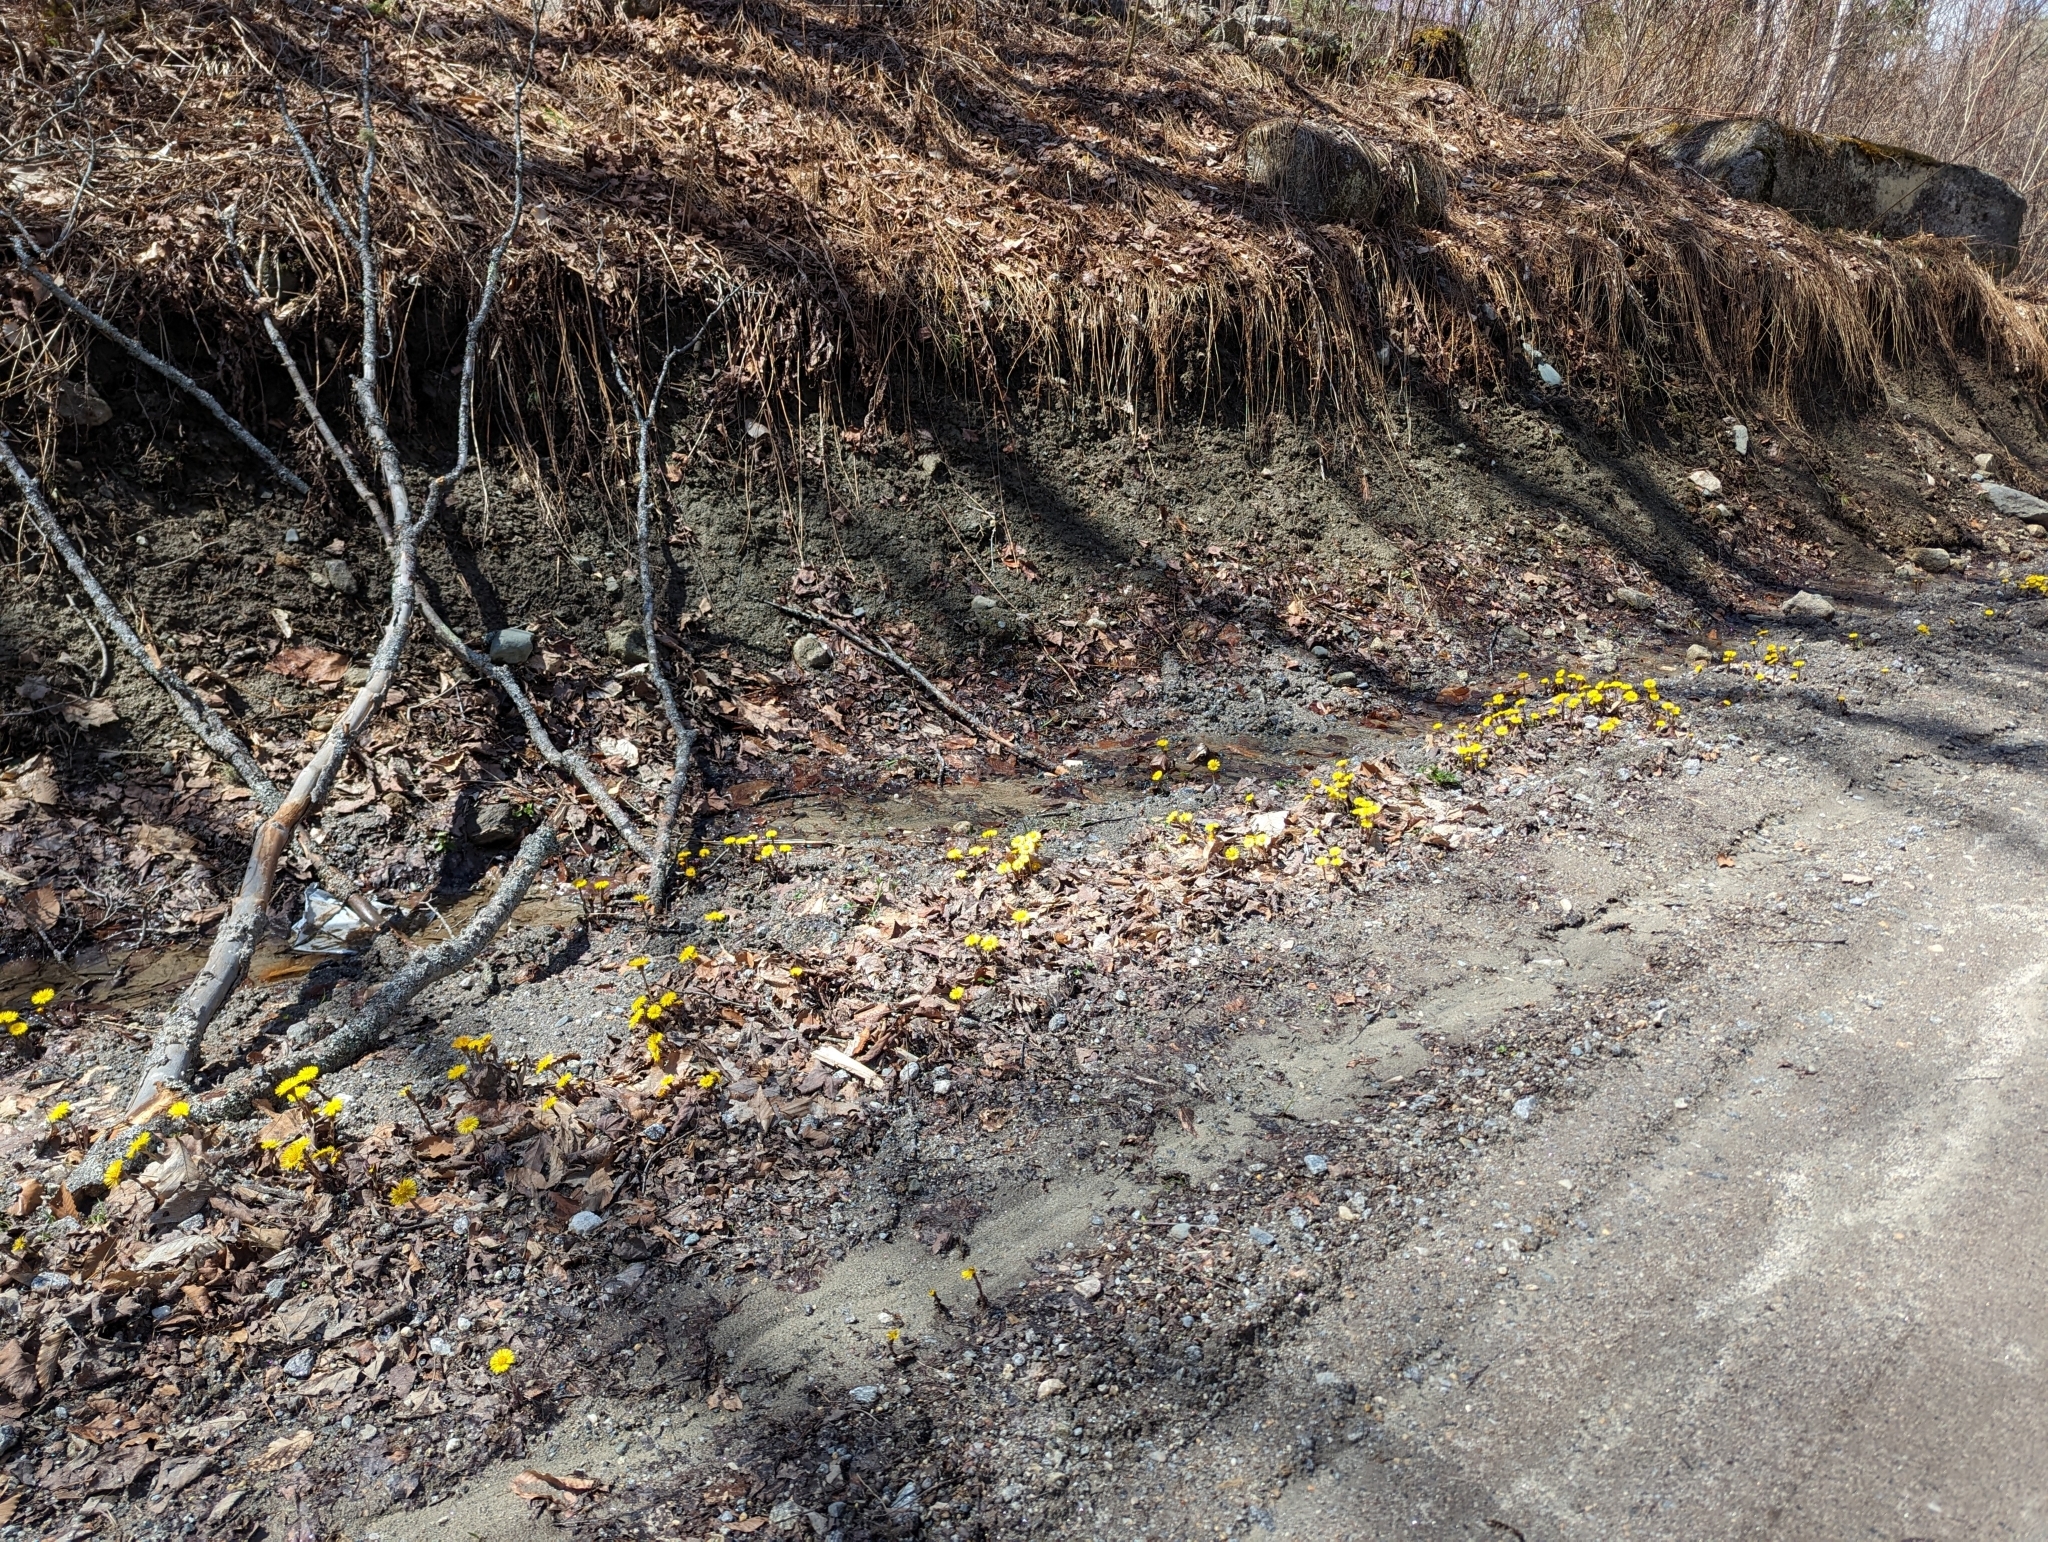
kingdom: Plantae
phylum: Tracheophyta
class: Magnoliopsida
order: Asterales
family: Asteraceae
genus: Tussilago
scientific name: Tussilago farfara
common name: Coltsfoot
